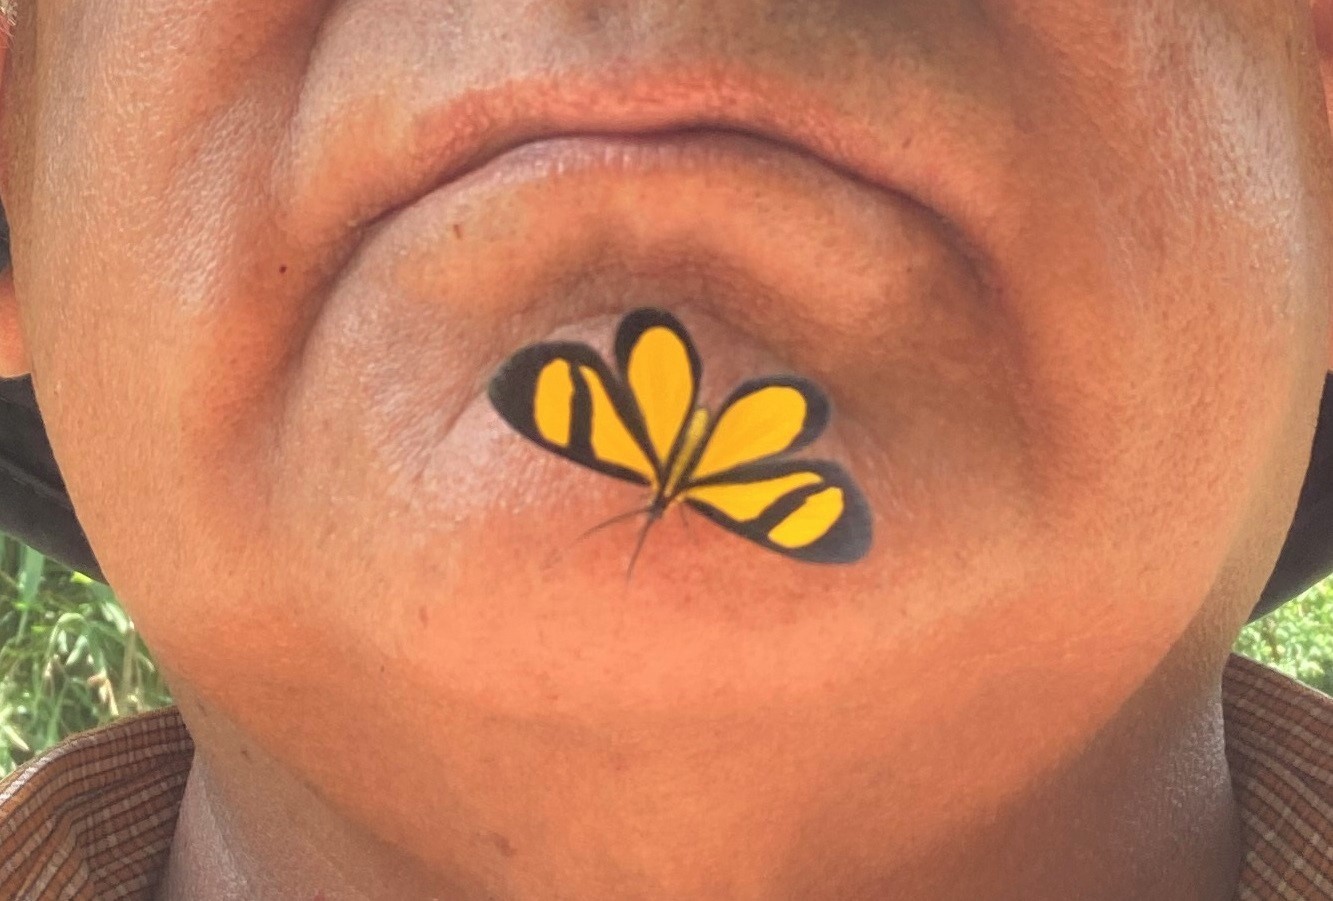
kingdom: Animalia
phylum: Arthropoda
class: Insecta
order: Lepidoptera
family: Geometridae
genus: Smicropus
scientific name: Smicropus laeta
